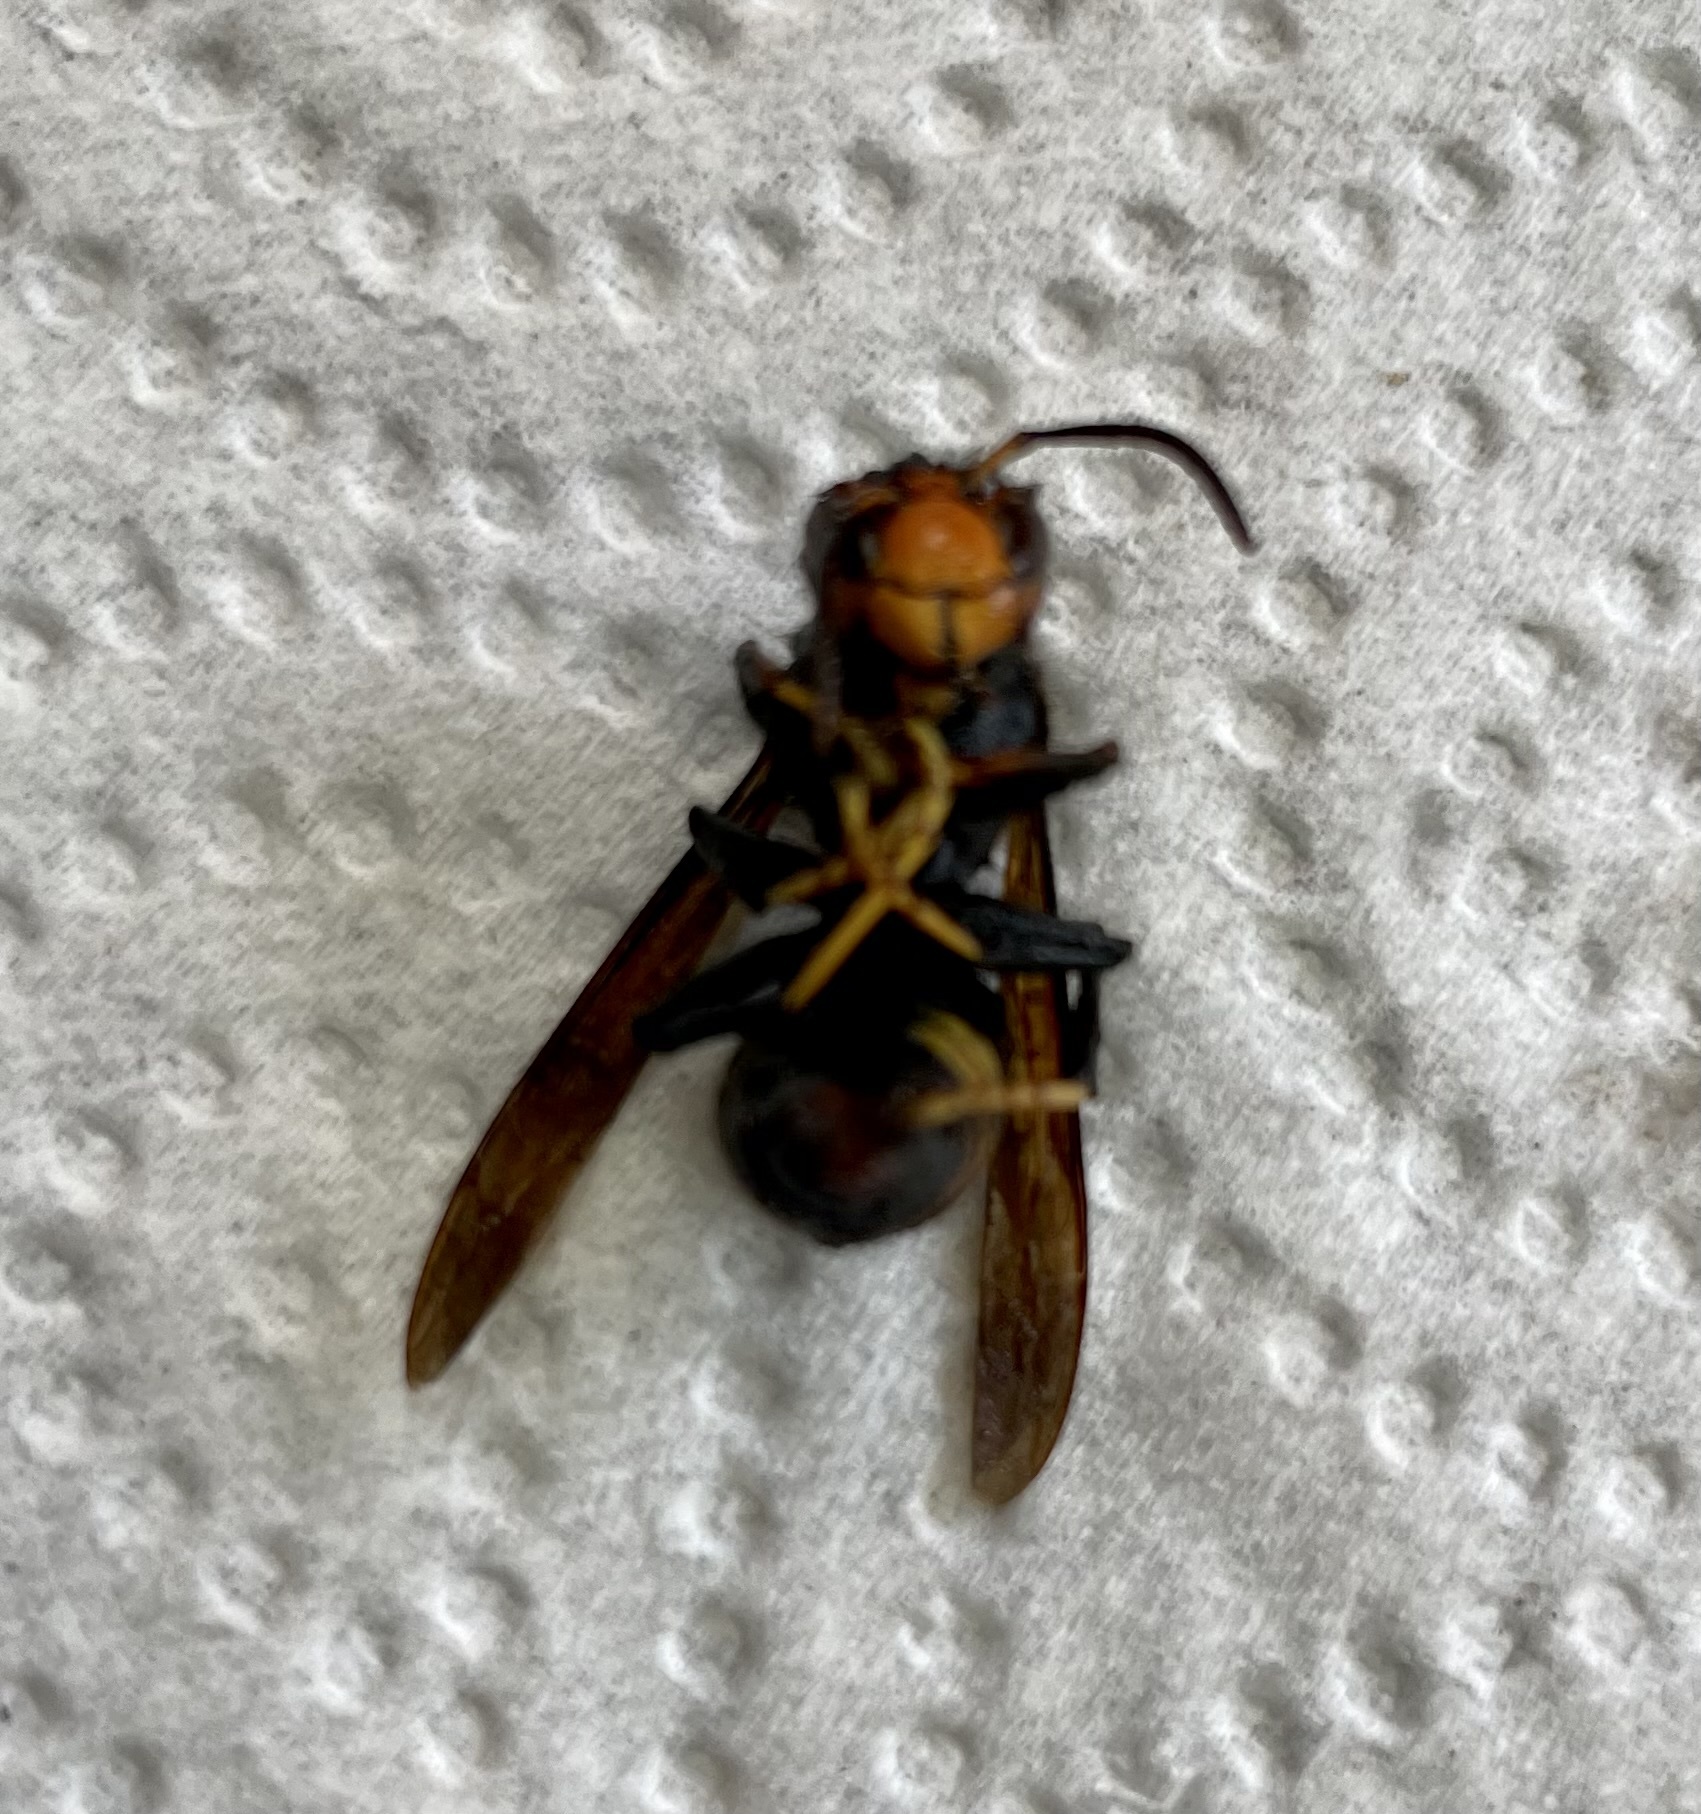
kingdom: Animalia
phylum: Arthropoda
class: Insecta
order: Hymenoptera
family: Vespidae
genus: Vespa
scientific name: Vespa velutina
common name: Asian hornet
